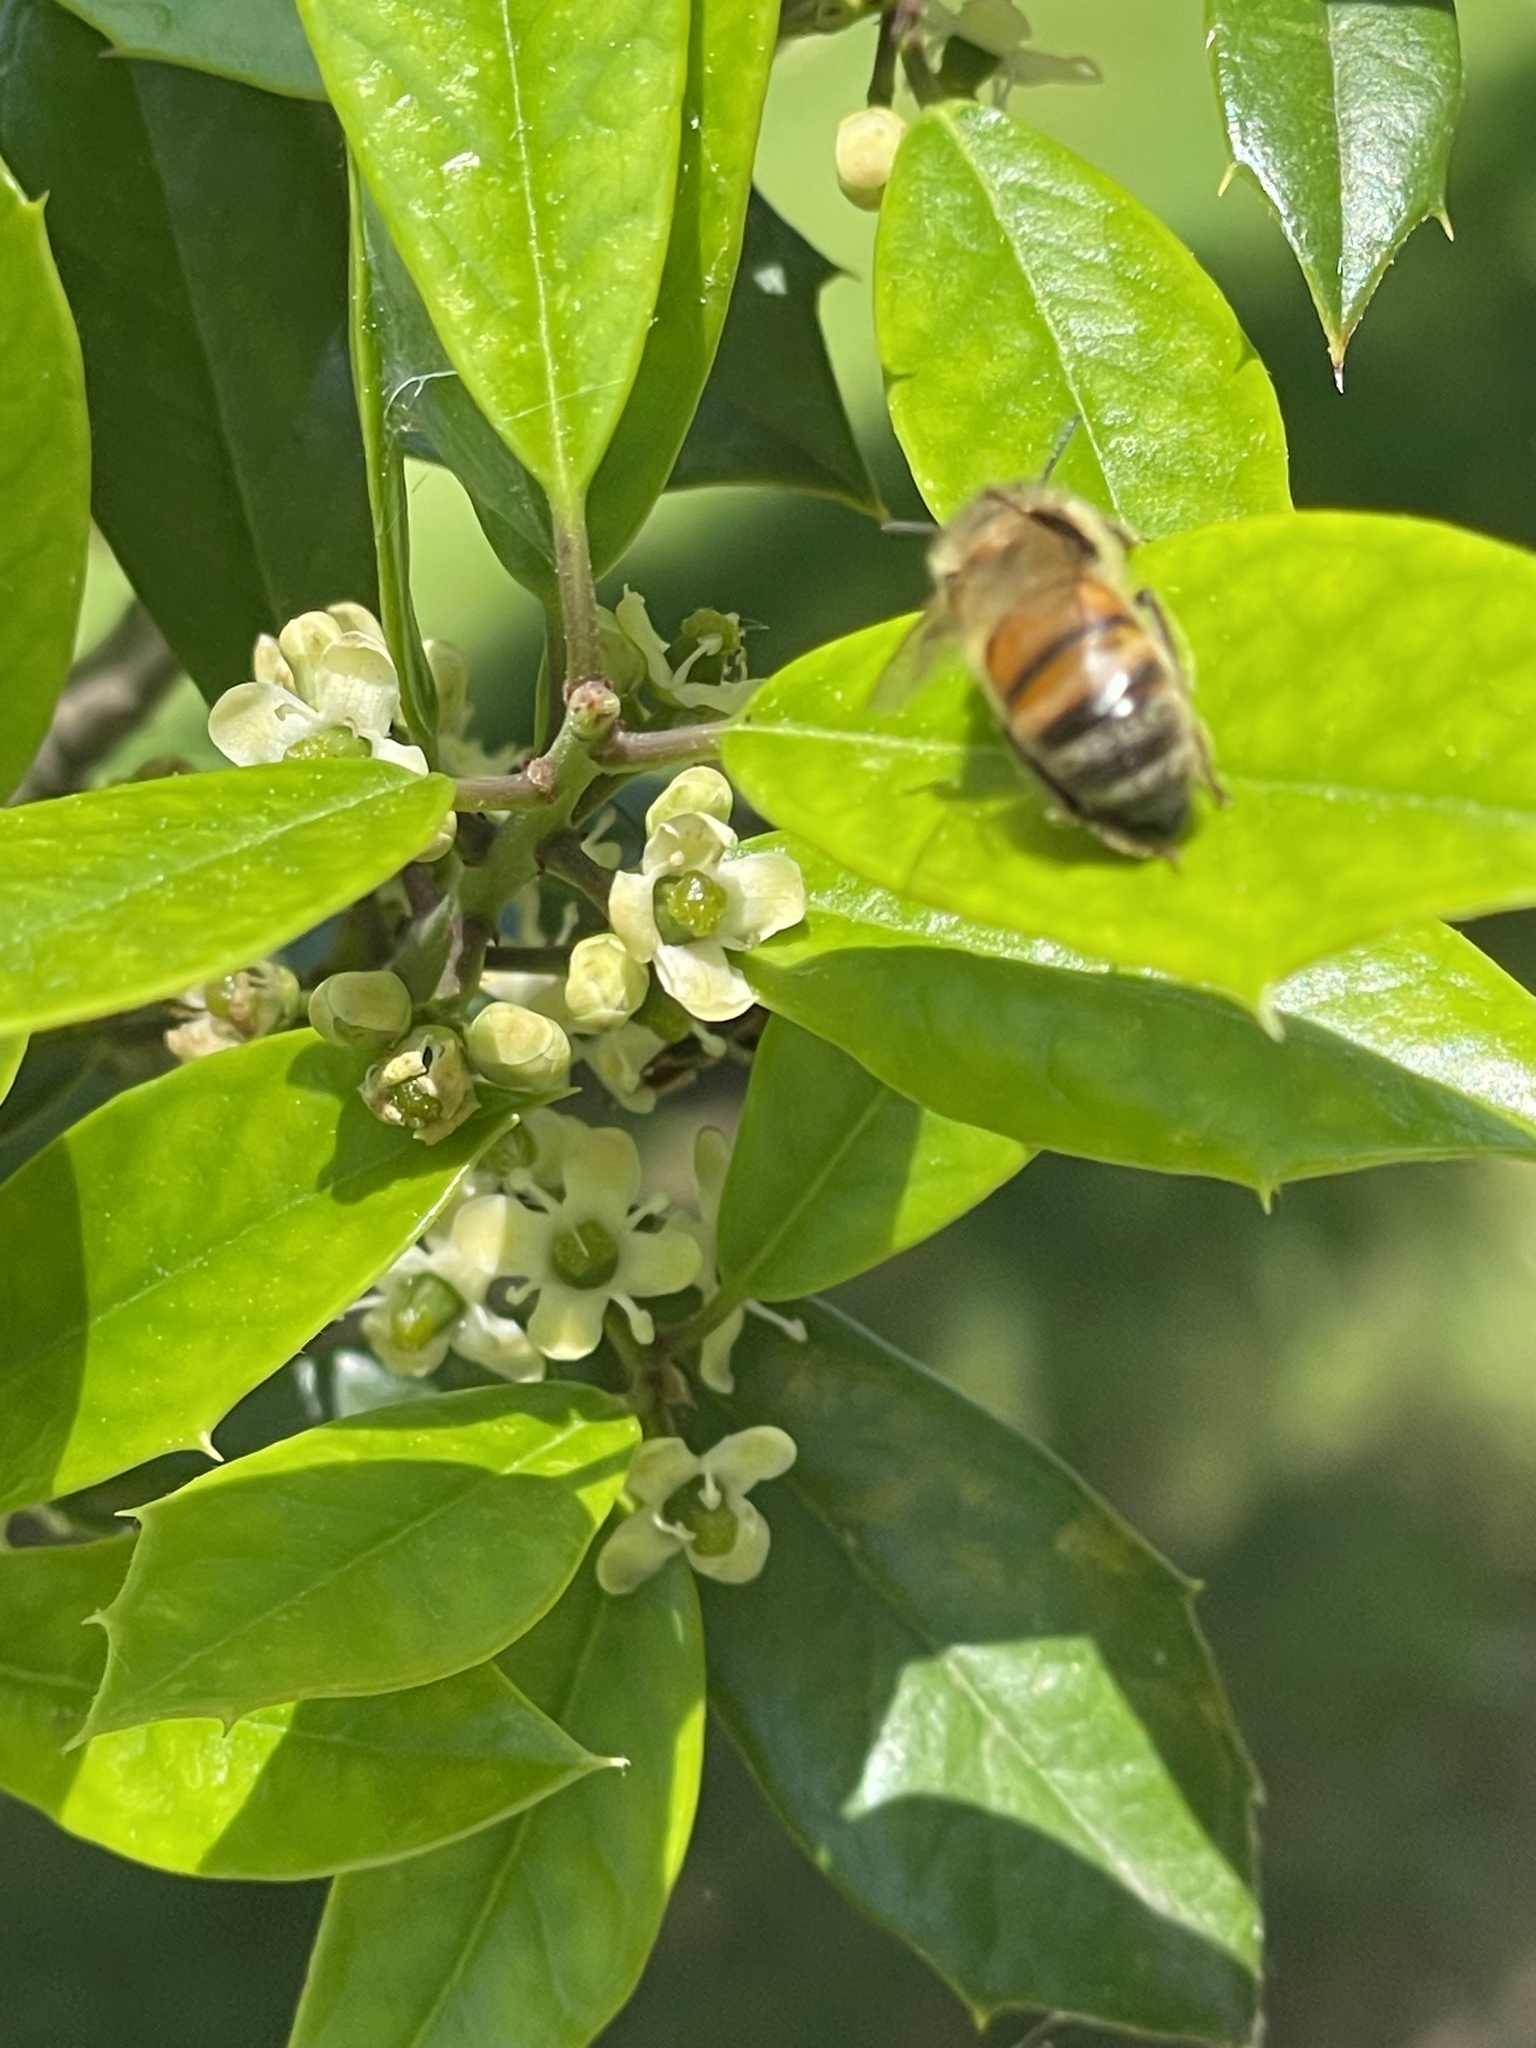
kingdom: Animalia
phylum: Arthropoda
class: Insecta
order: Hymenoptera
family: Apidae
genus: Apis
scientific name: Apis mellifera
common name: Honey bee
